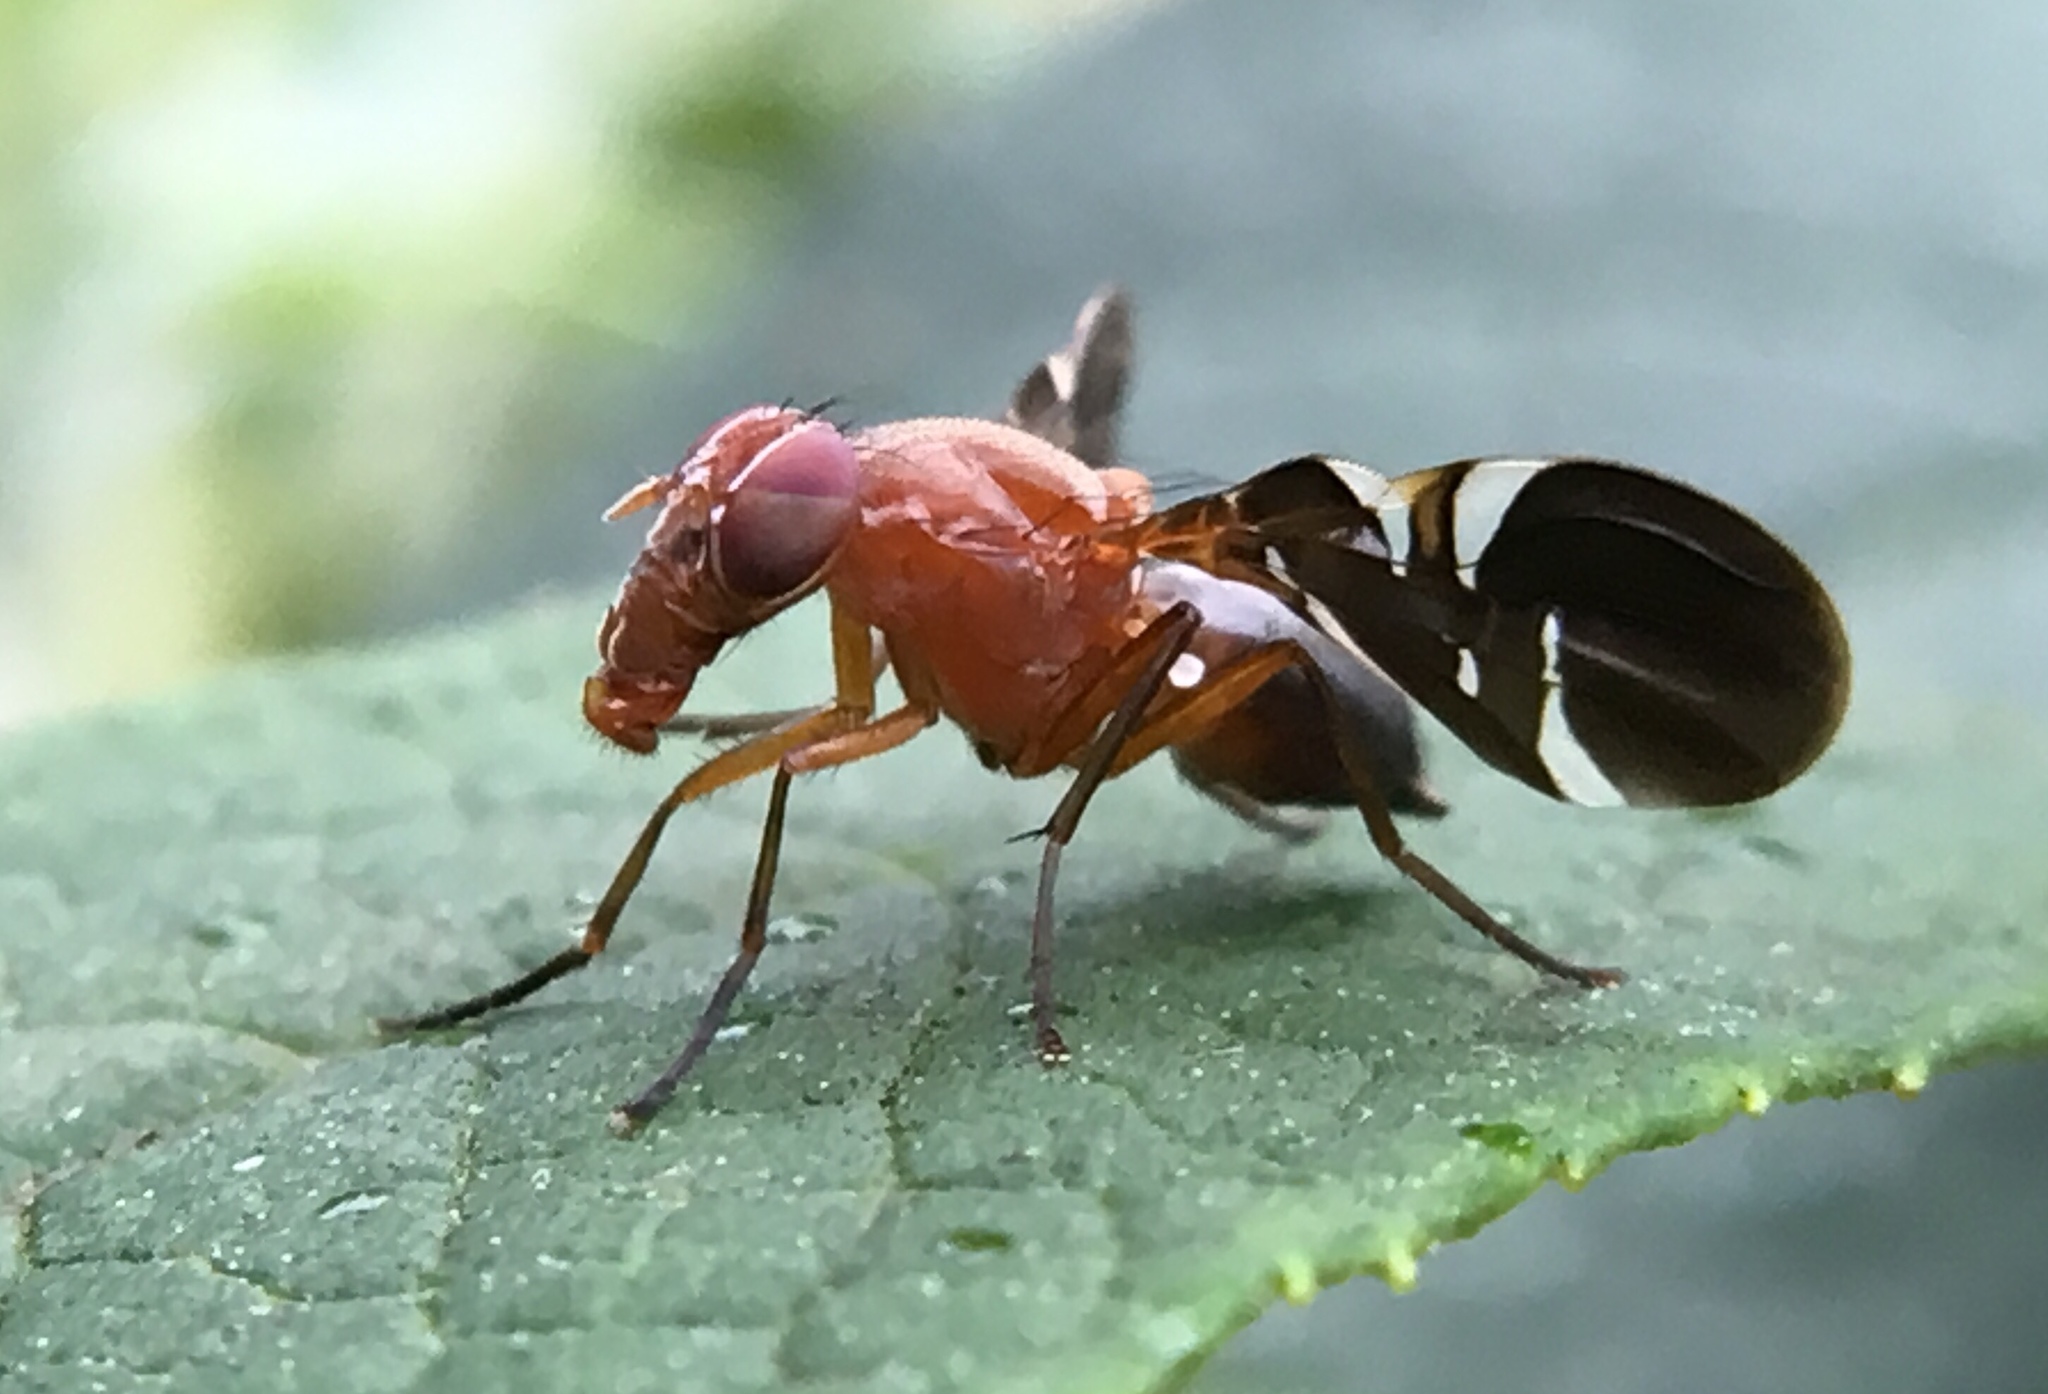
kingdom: Animalia
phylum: Arthropoda
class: Insecta
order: Diptera
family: Ulidiidae
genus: Delphinia
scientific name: Delphinia picta
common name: Common picture-winged fly
